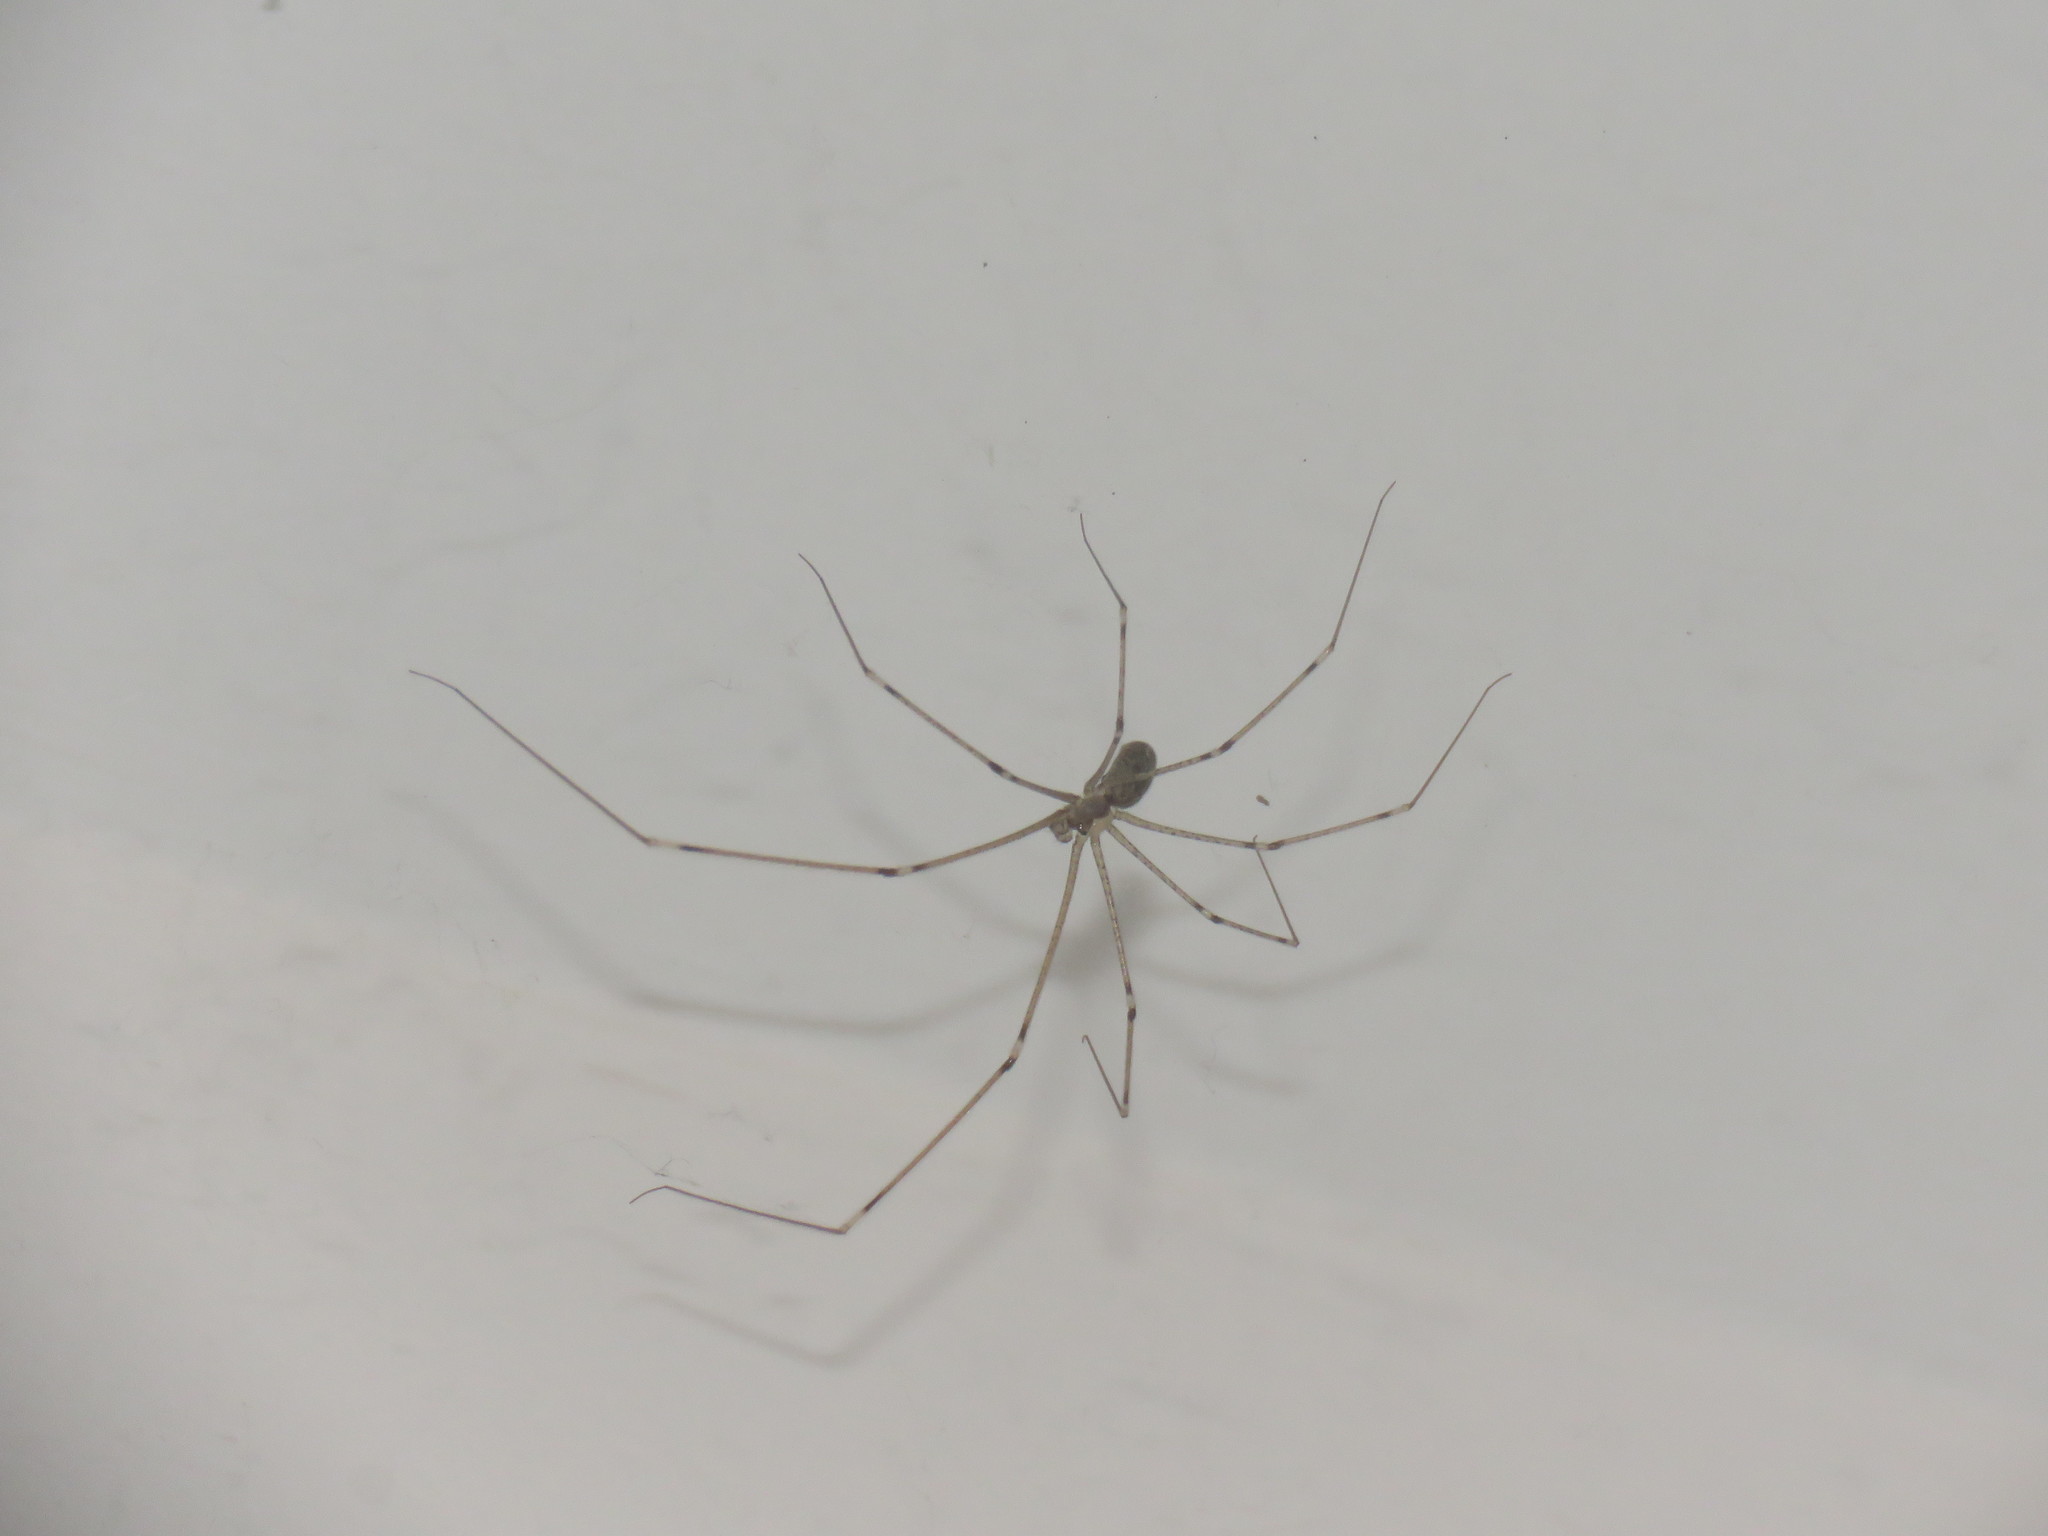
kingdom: Animalia
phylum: Arthropoda
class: Arachnida
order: Araneae
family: Pholcidae
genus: Pholcus
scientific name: Pholcus phalangioides
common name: Longbodied cellar spider
